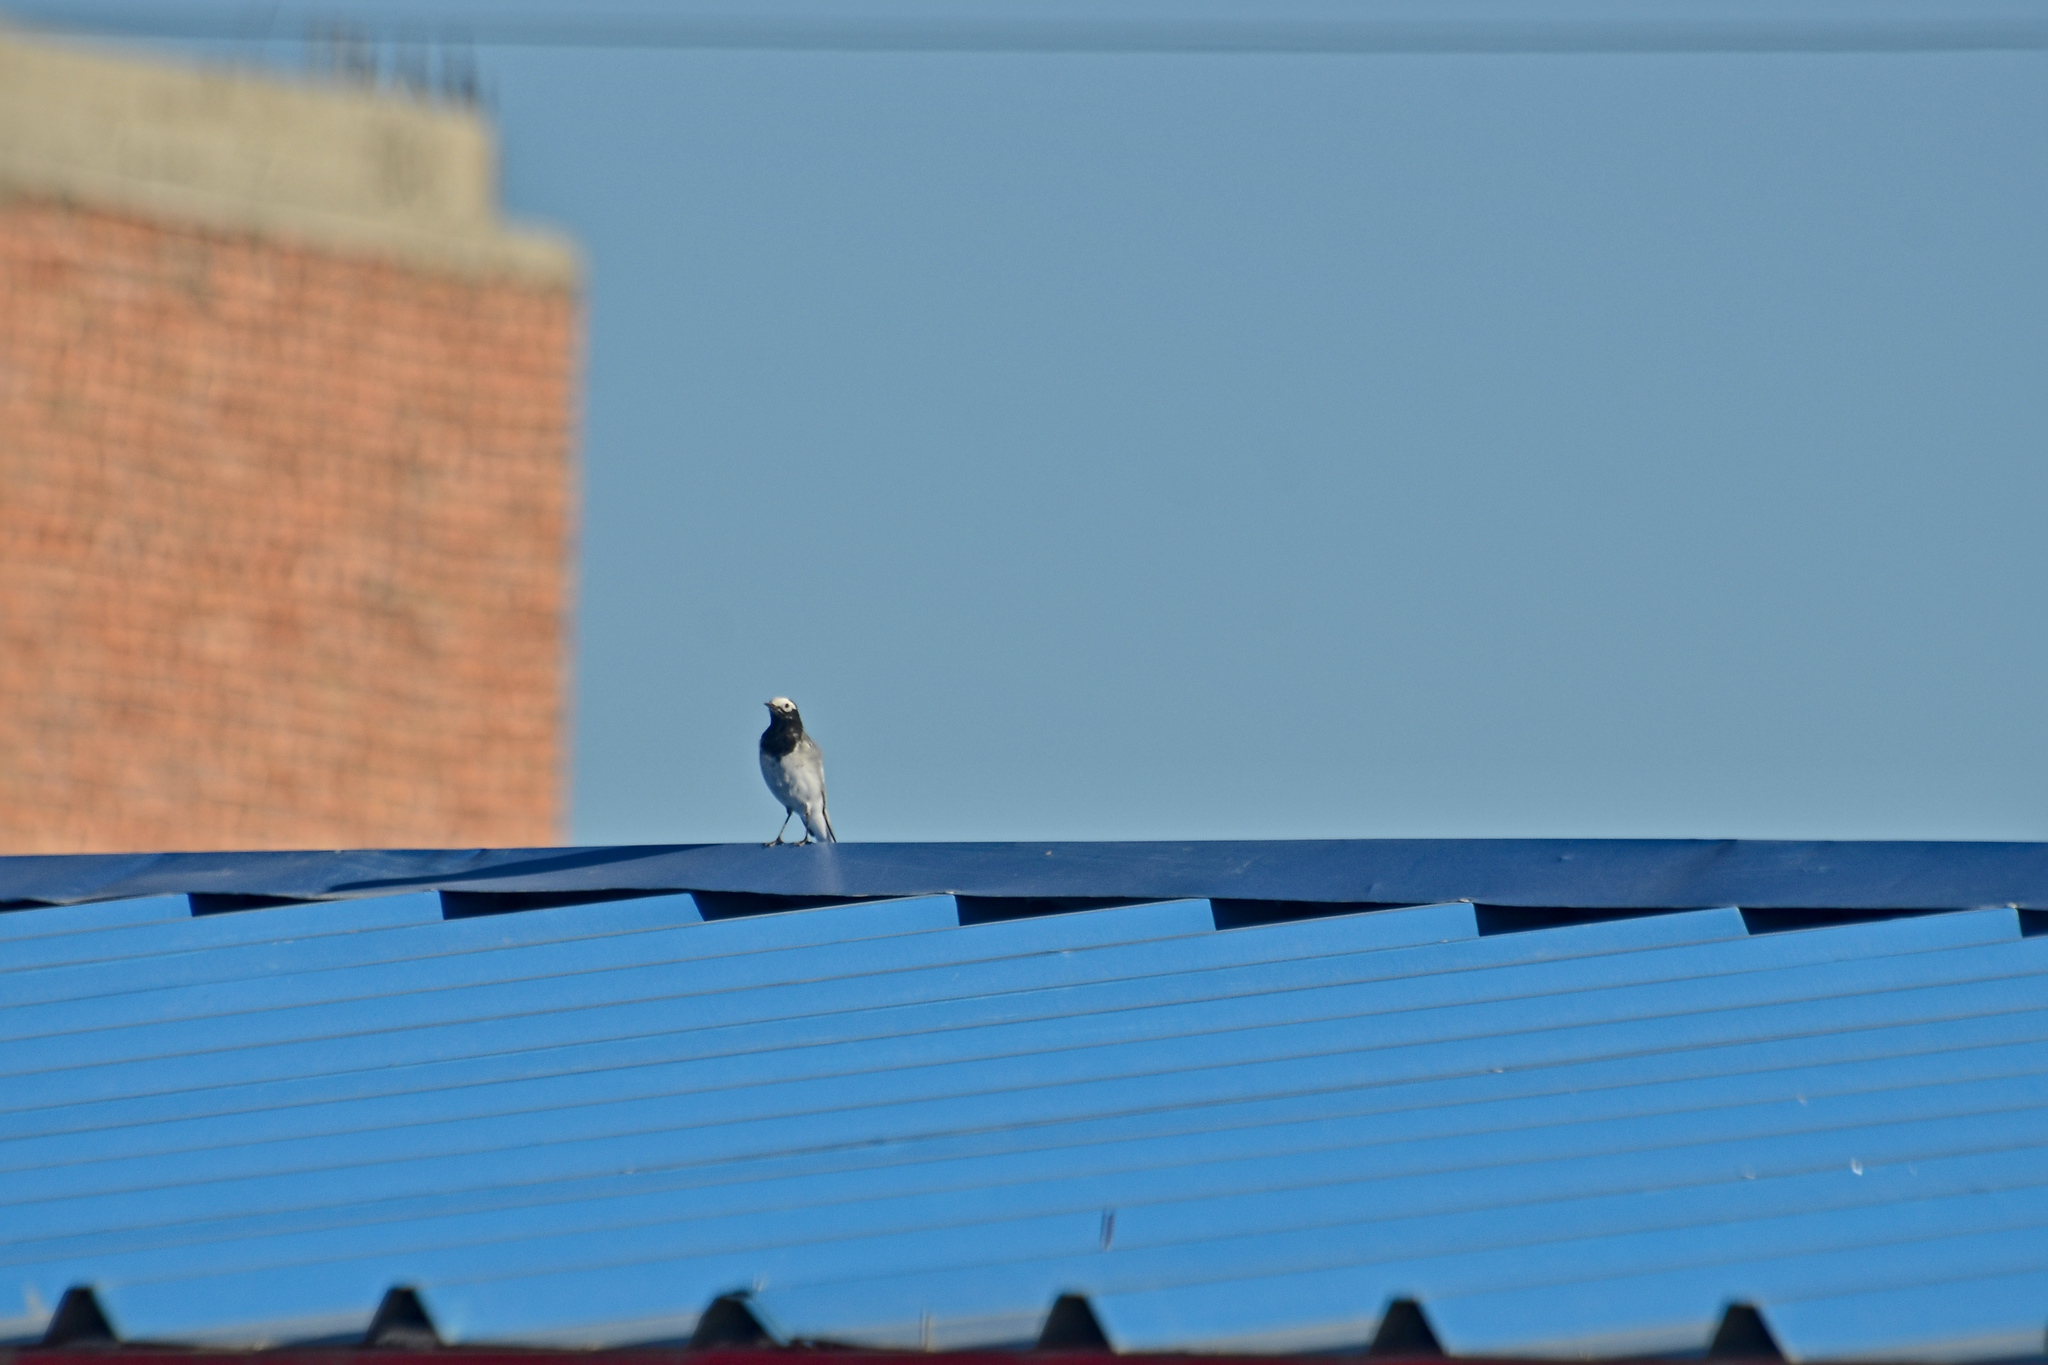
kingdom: Animalia
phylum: Chordata
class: Aves
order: Passeriformes
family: Motacillidae
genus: Motacilla
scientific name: Motacilla alba
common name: White wagtail
